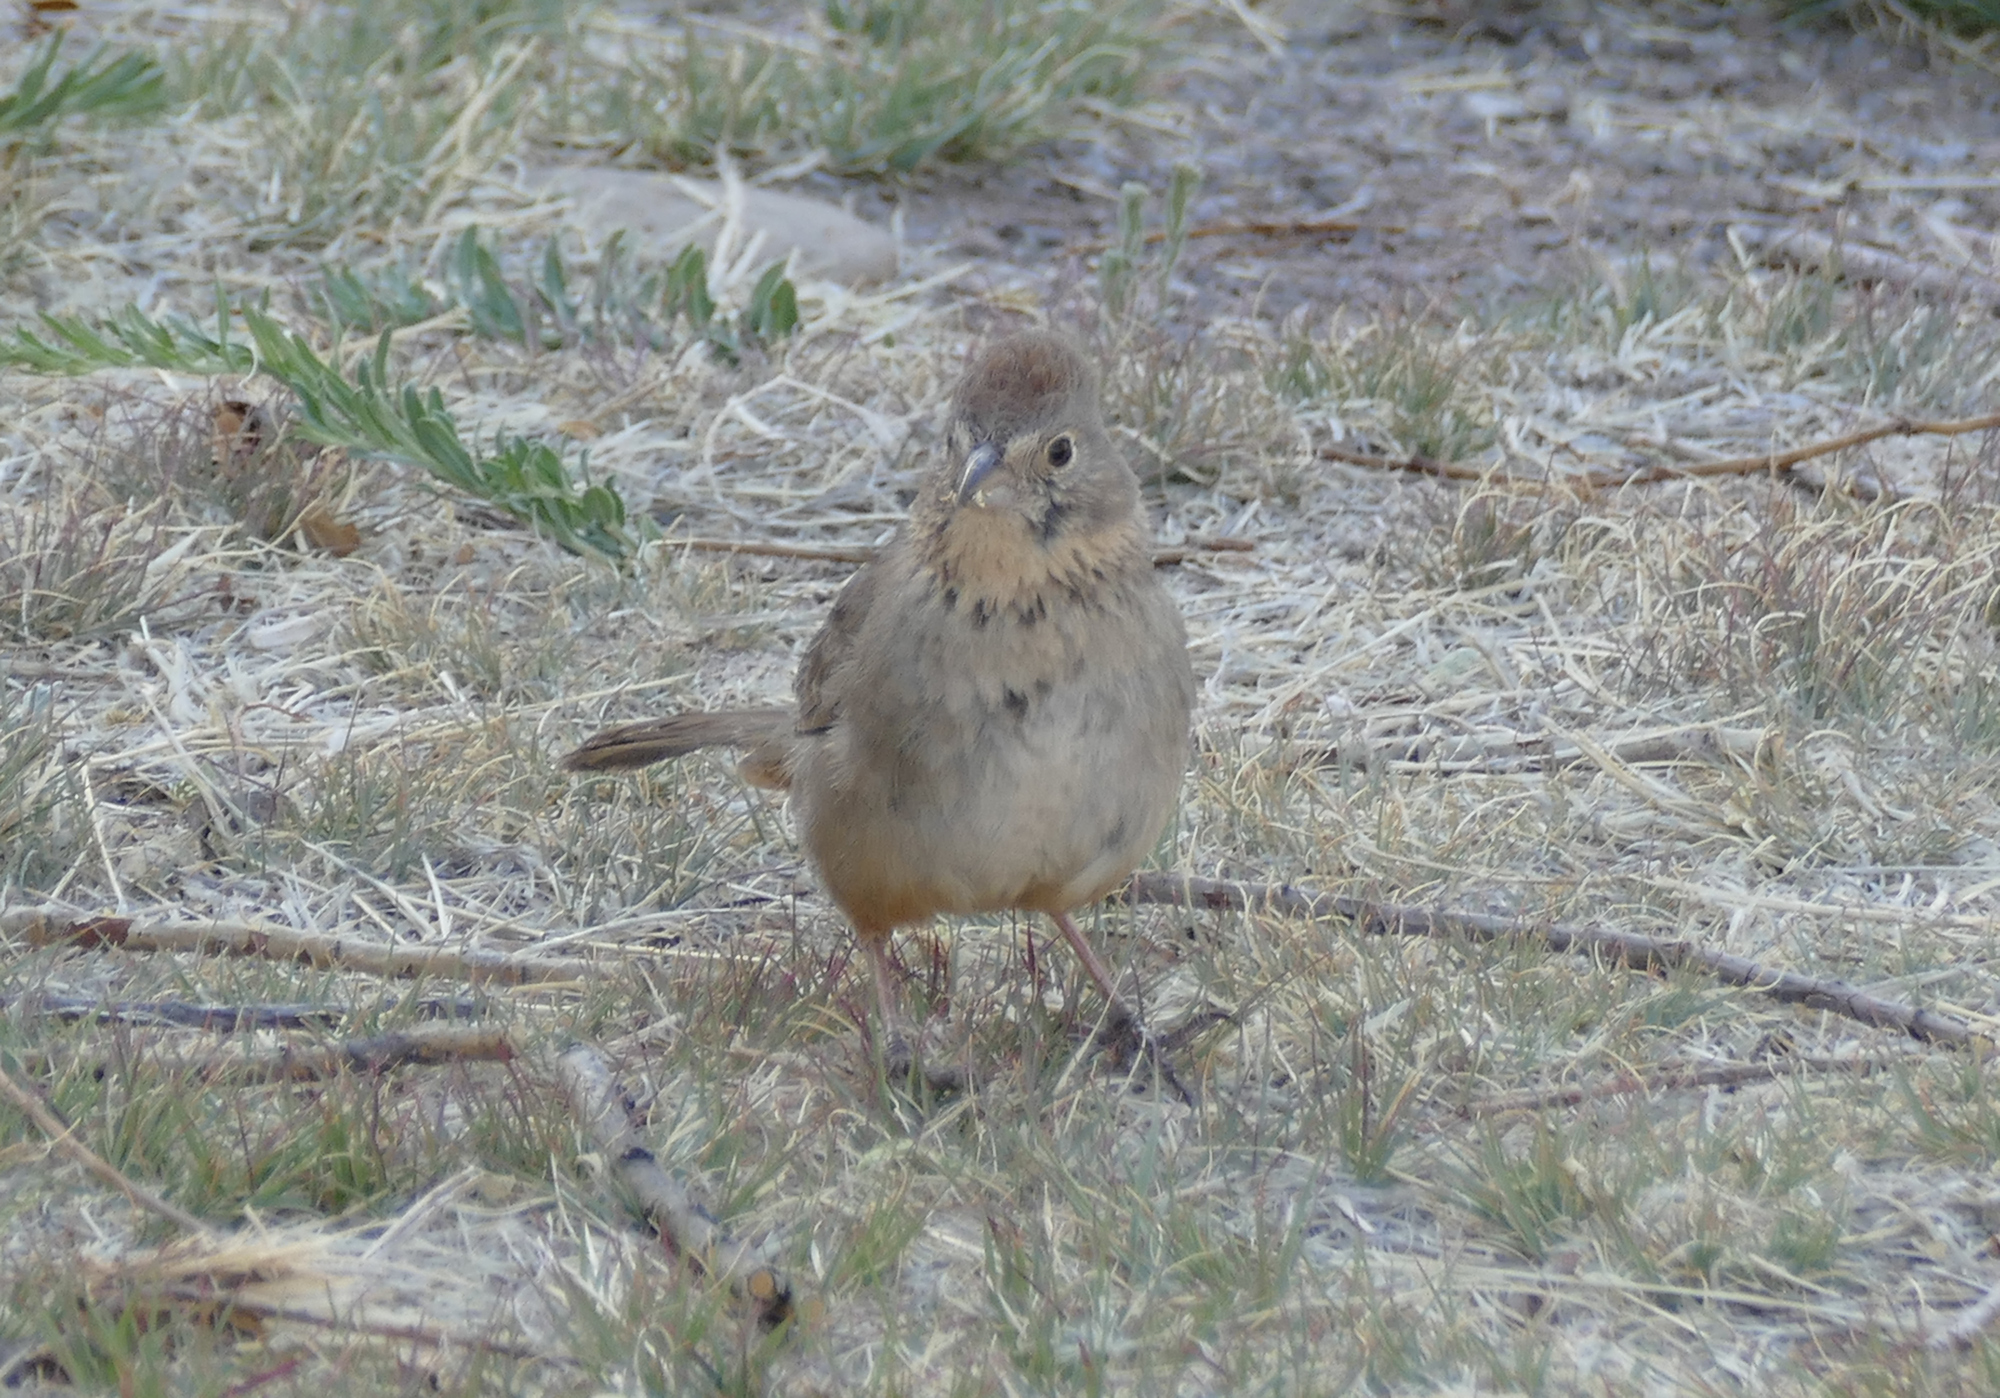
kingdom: Animalia
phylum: Chordata
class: Aves
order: Passeriformes
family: Passerellidae
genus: Melozone
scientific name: Melozone fusca
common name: Canyon towhee
